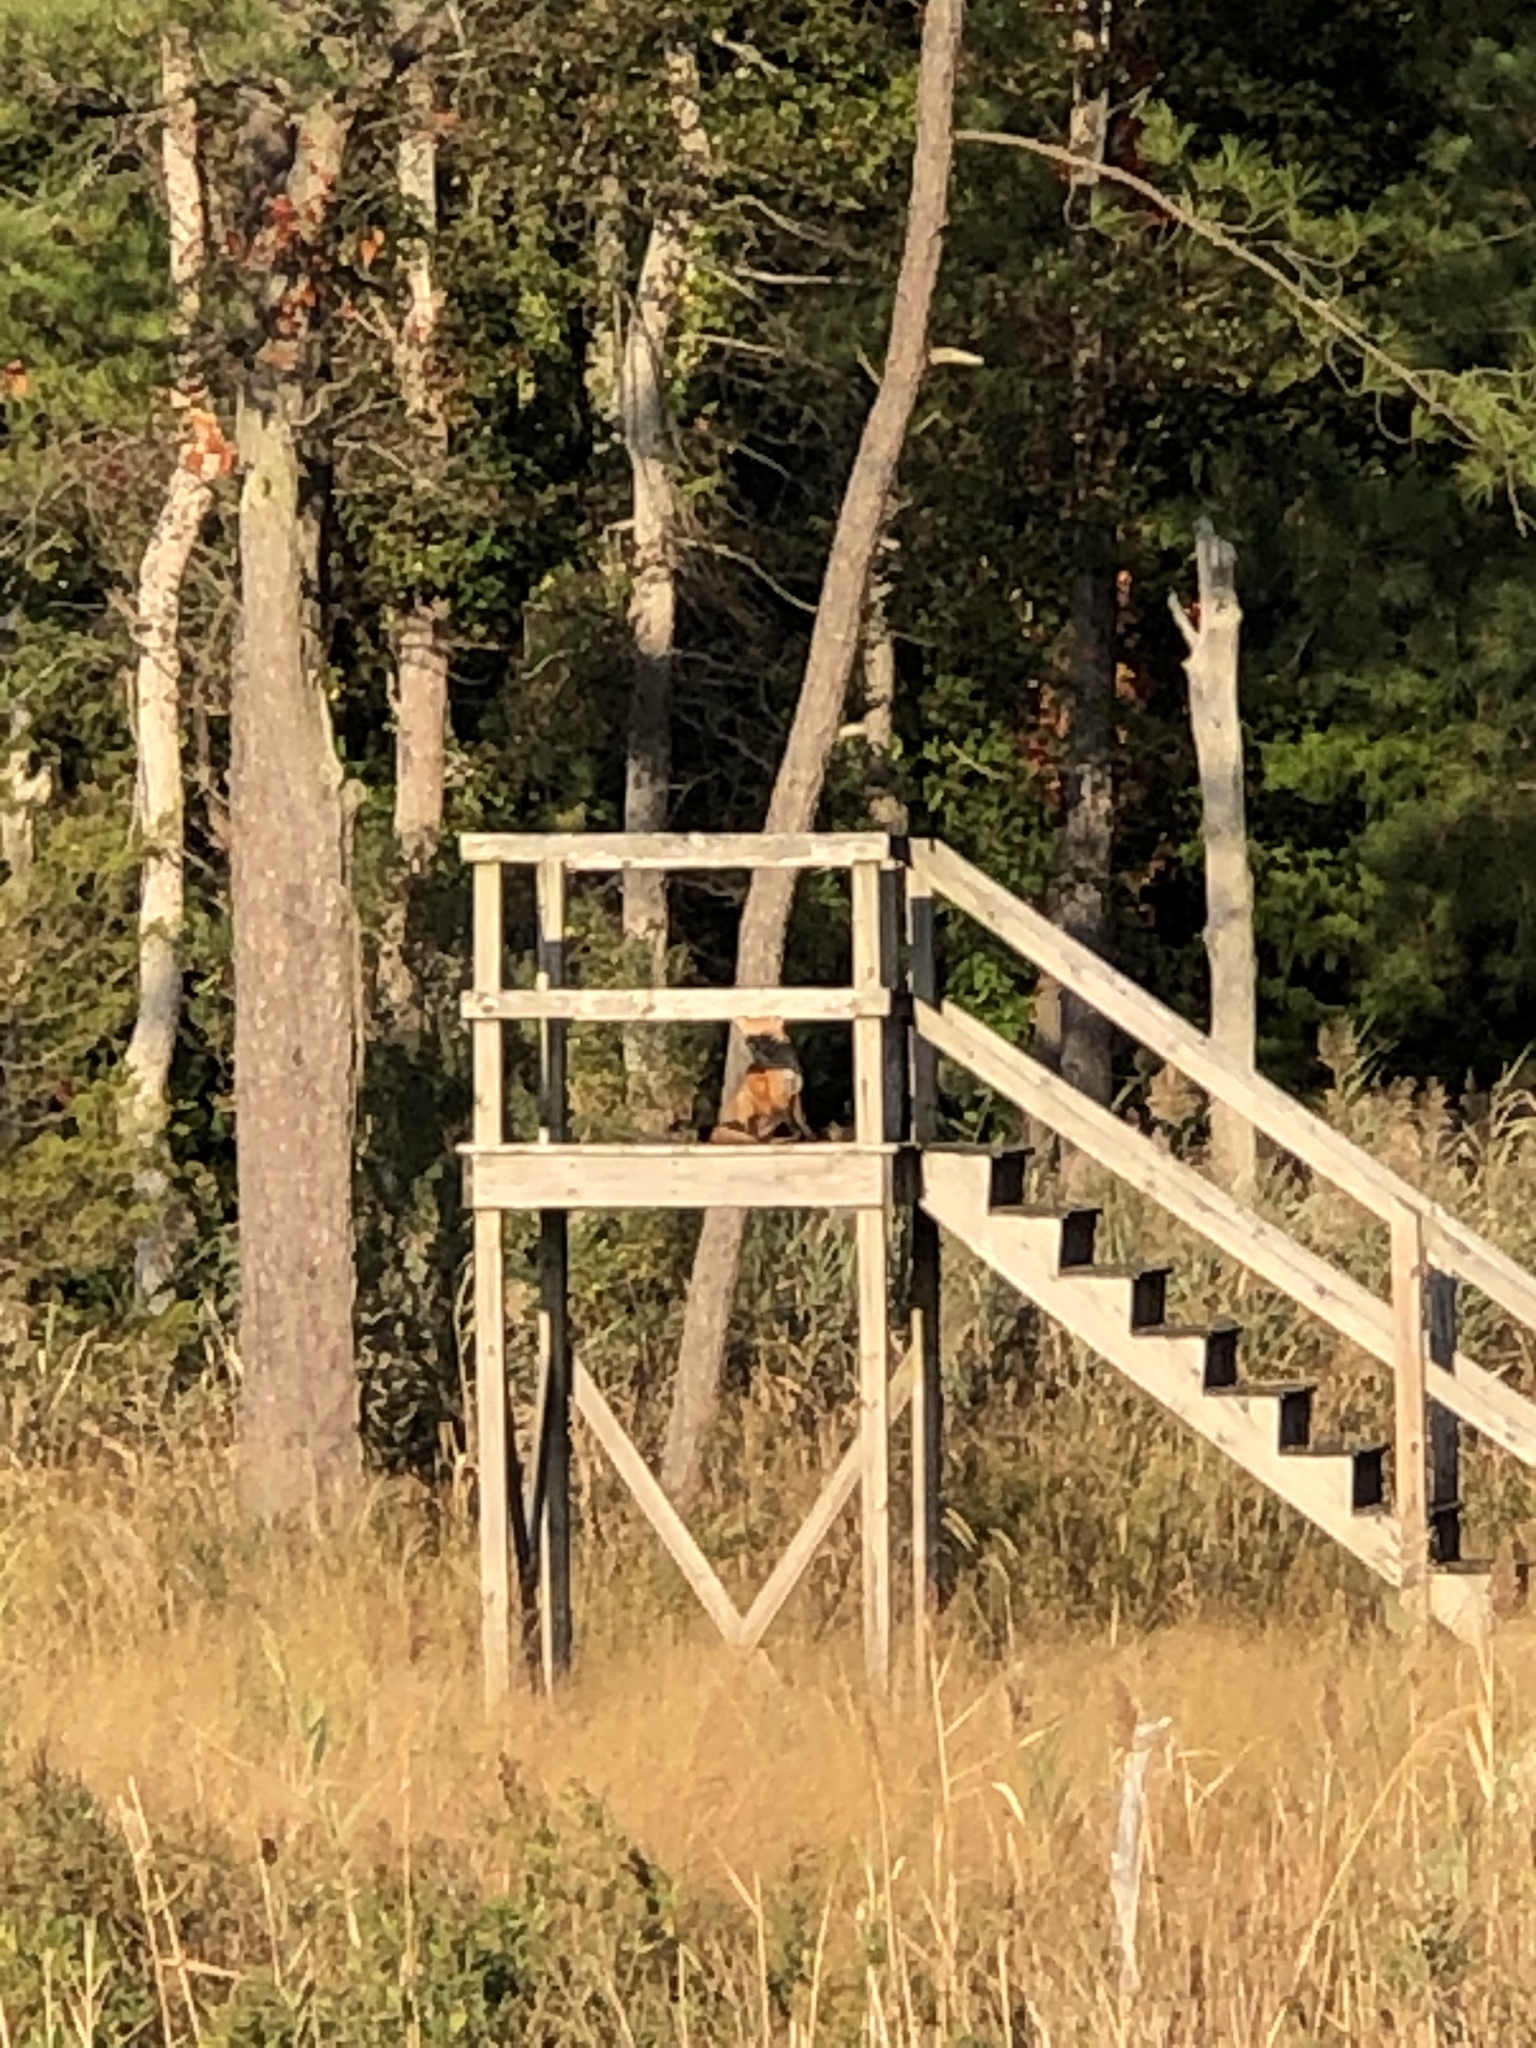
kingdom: Animalia
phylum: Chordata
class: Mammalia
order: Carnivora
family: Canidae
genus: Vulpes
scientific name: Vulpes vulpes
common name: Red fox
